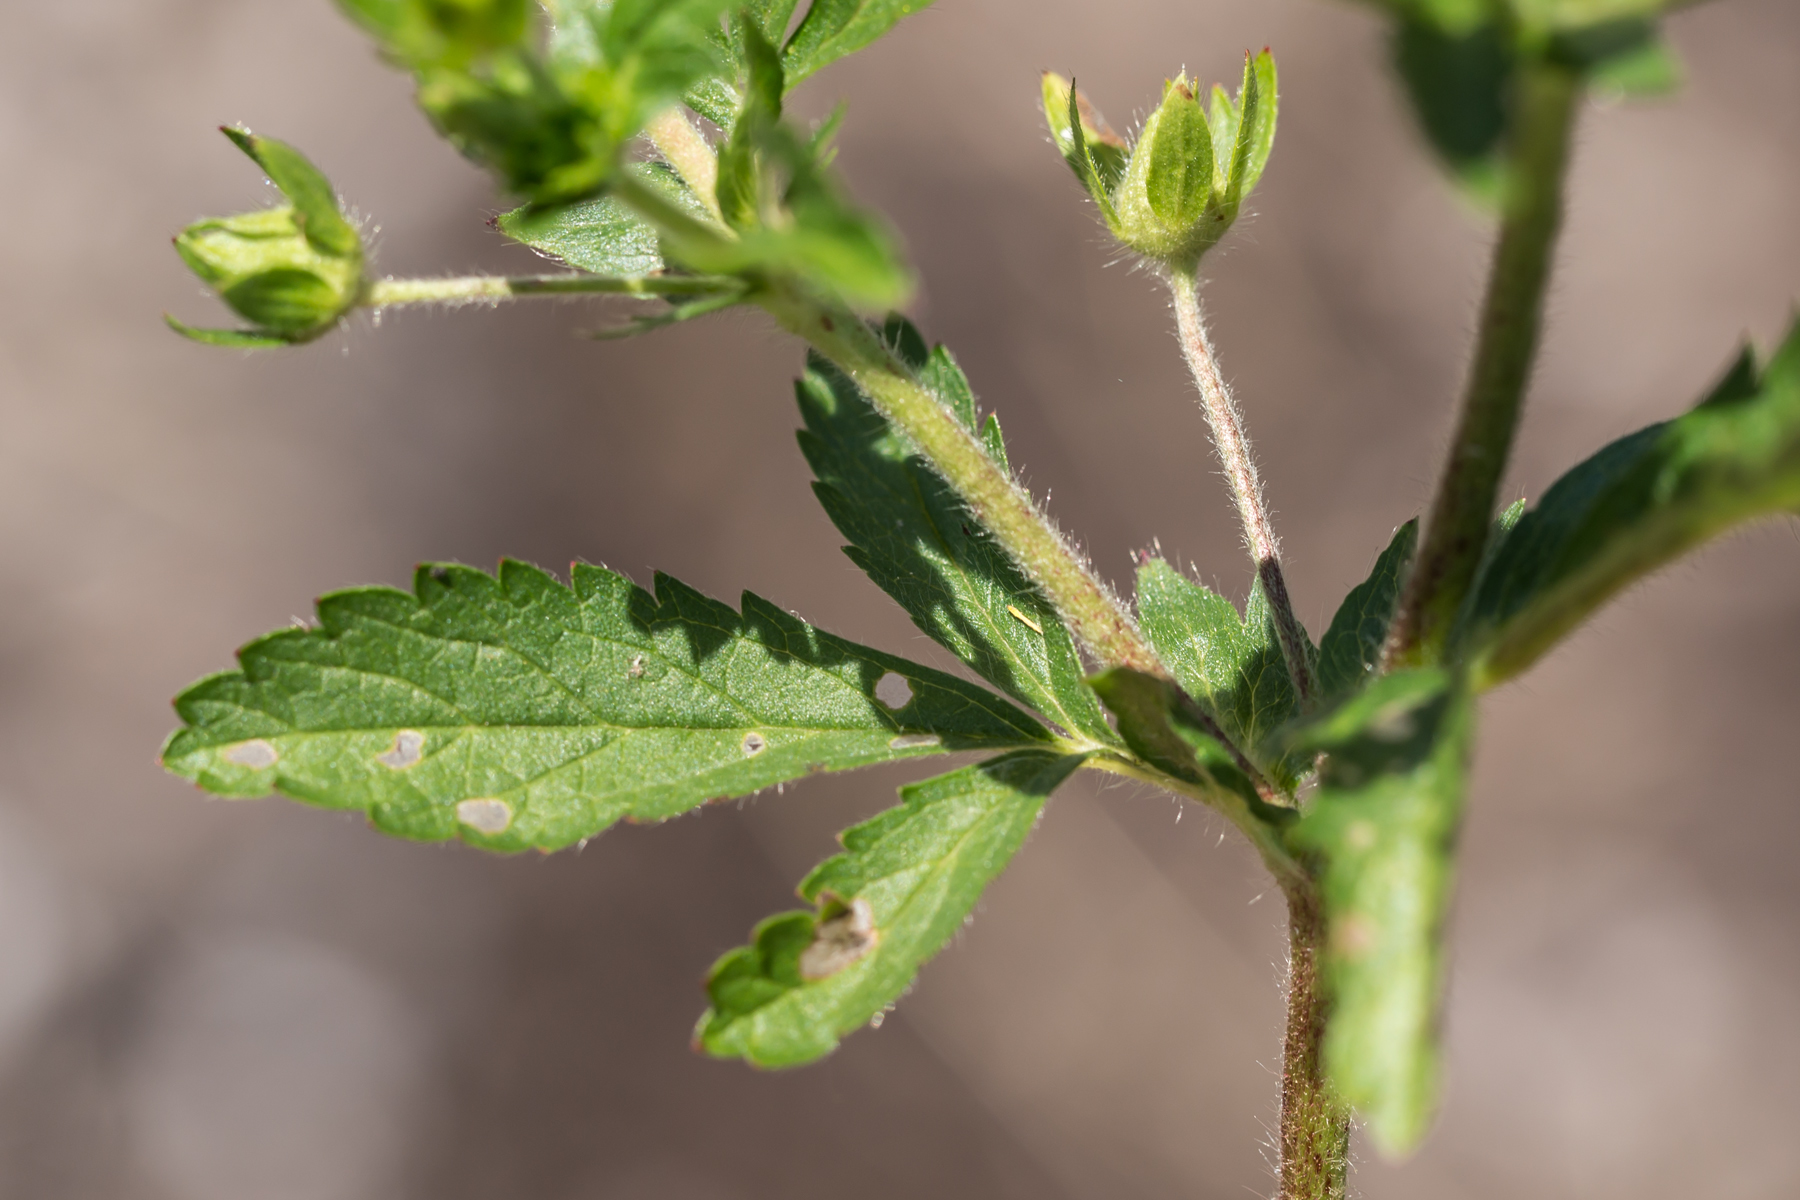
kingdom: Plantae
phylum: Tracheophyta
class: Magnoliopsida
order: Rosales
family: Rosaceae
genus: Potentilla
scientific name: Potentilla norvegica
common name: Ternate-leaved cinquefoil
